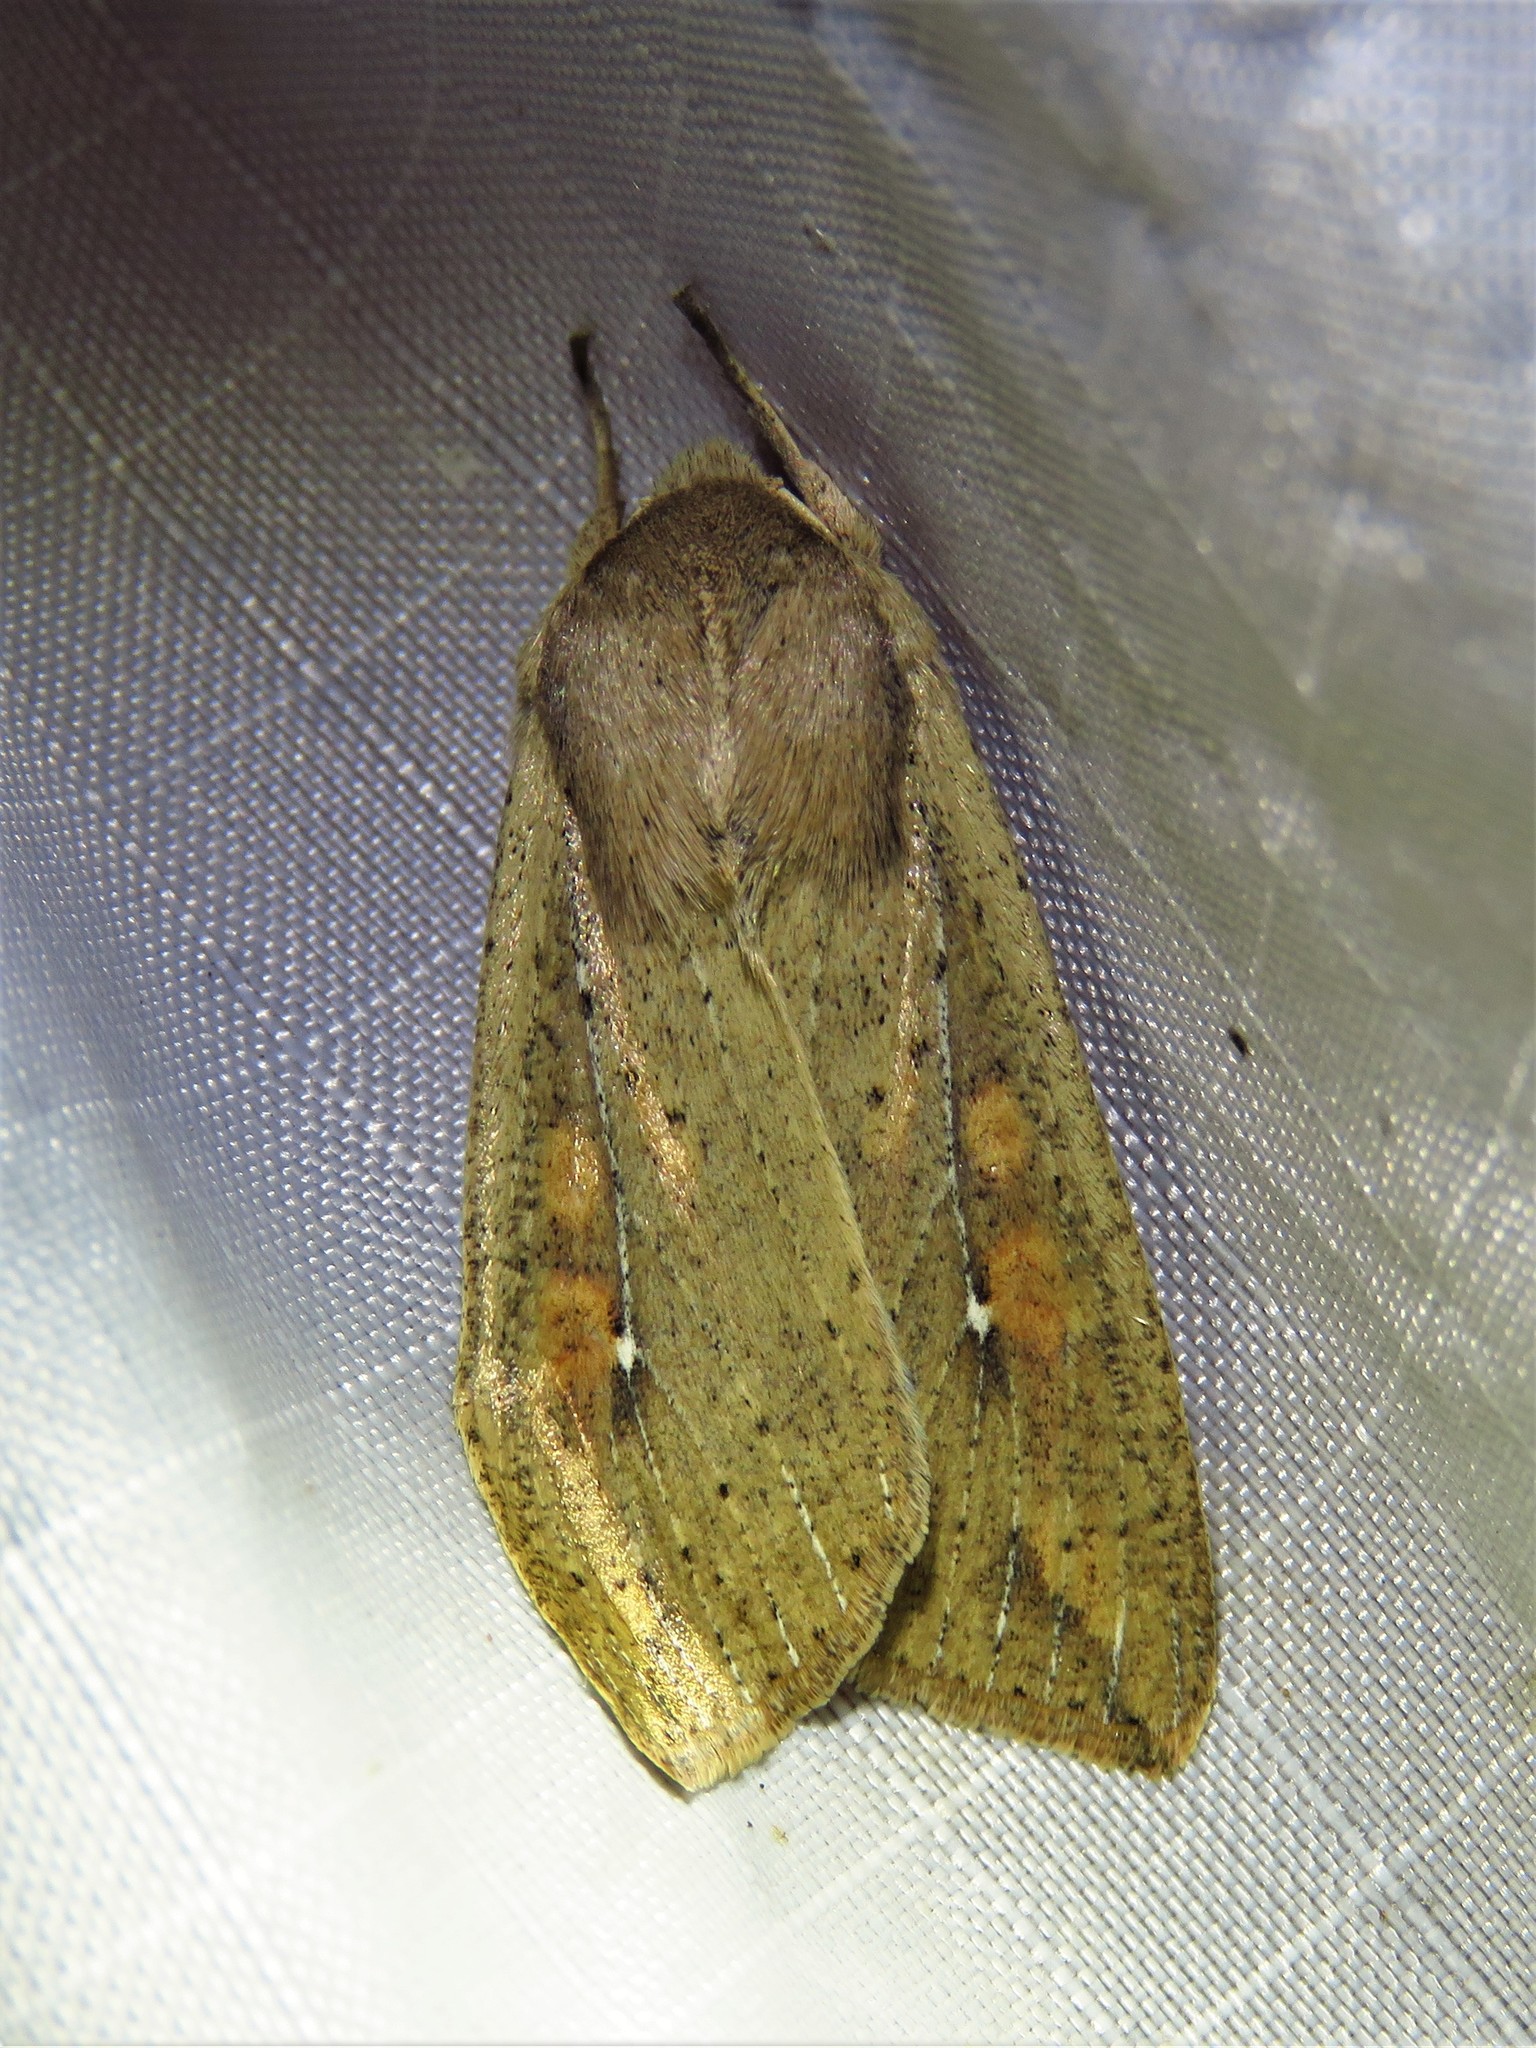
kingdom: Animalia
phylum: Arthropoda
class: Insecta
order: Lepidoptera
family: Noctuidae
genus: Mythimna
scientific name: Mythimna unipuncta
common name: White-speck
